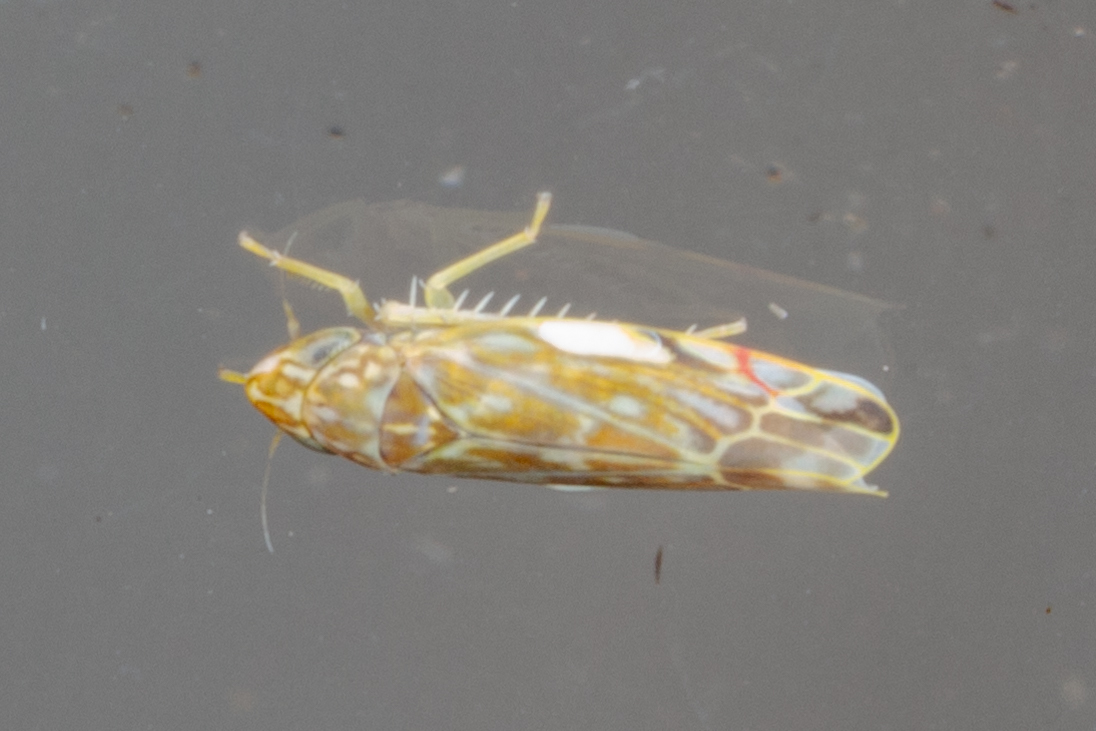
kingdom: Animalia
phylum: Arthropoda
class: Insecta
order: Hemiptera
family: Cicadellidae
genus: Erasmoneura
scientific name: Erasmoneura vulnerata
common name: The wounded leafhopper
